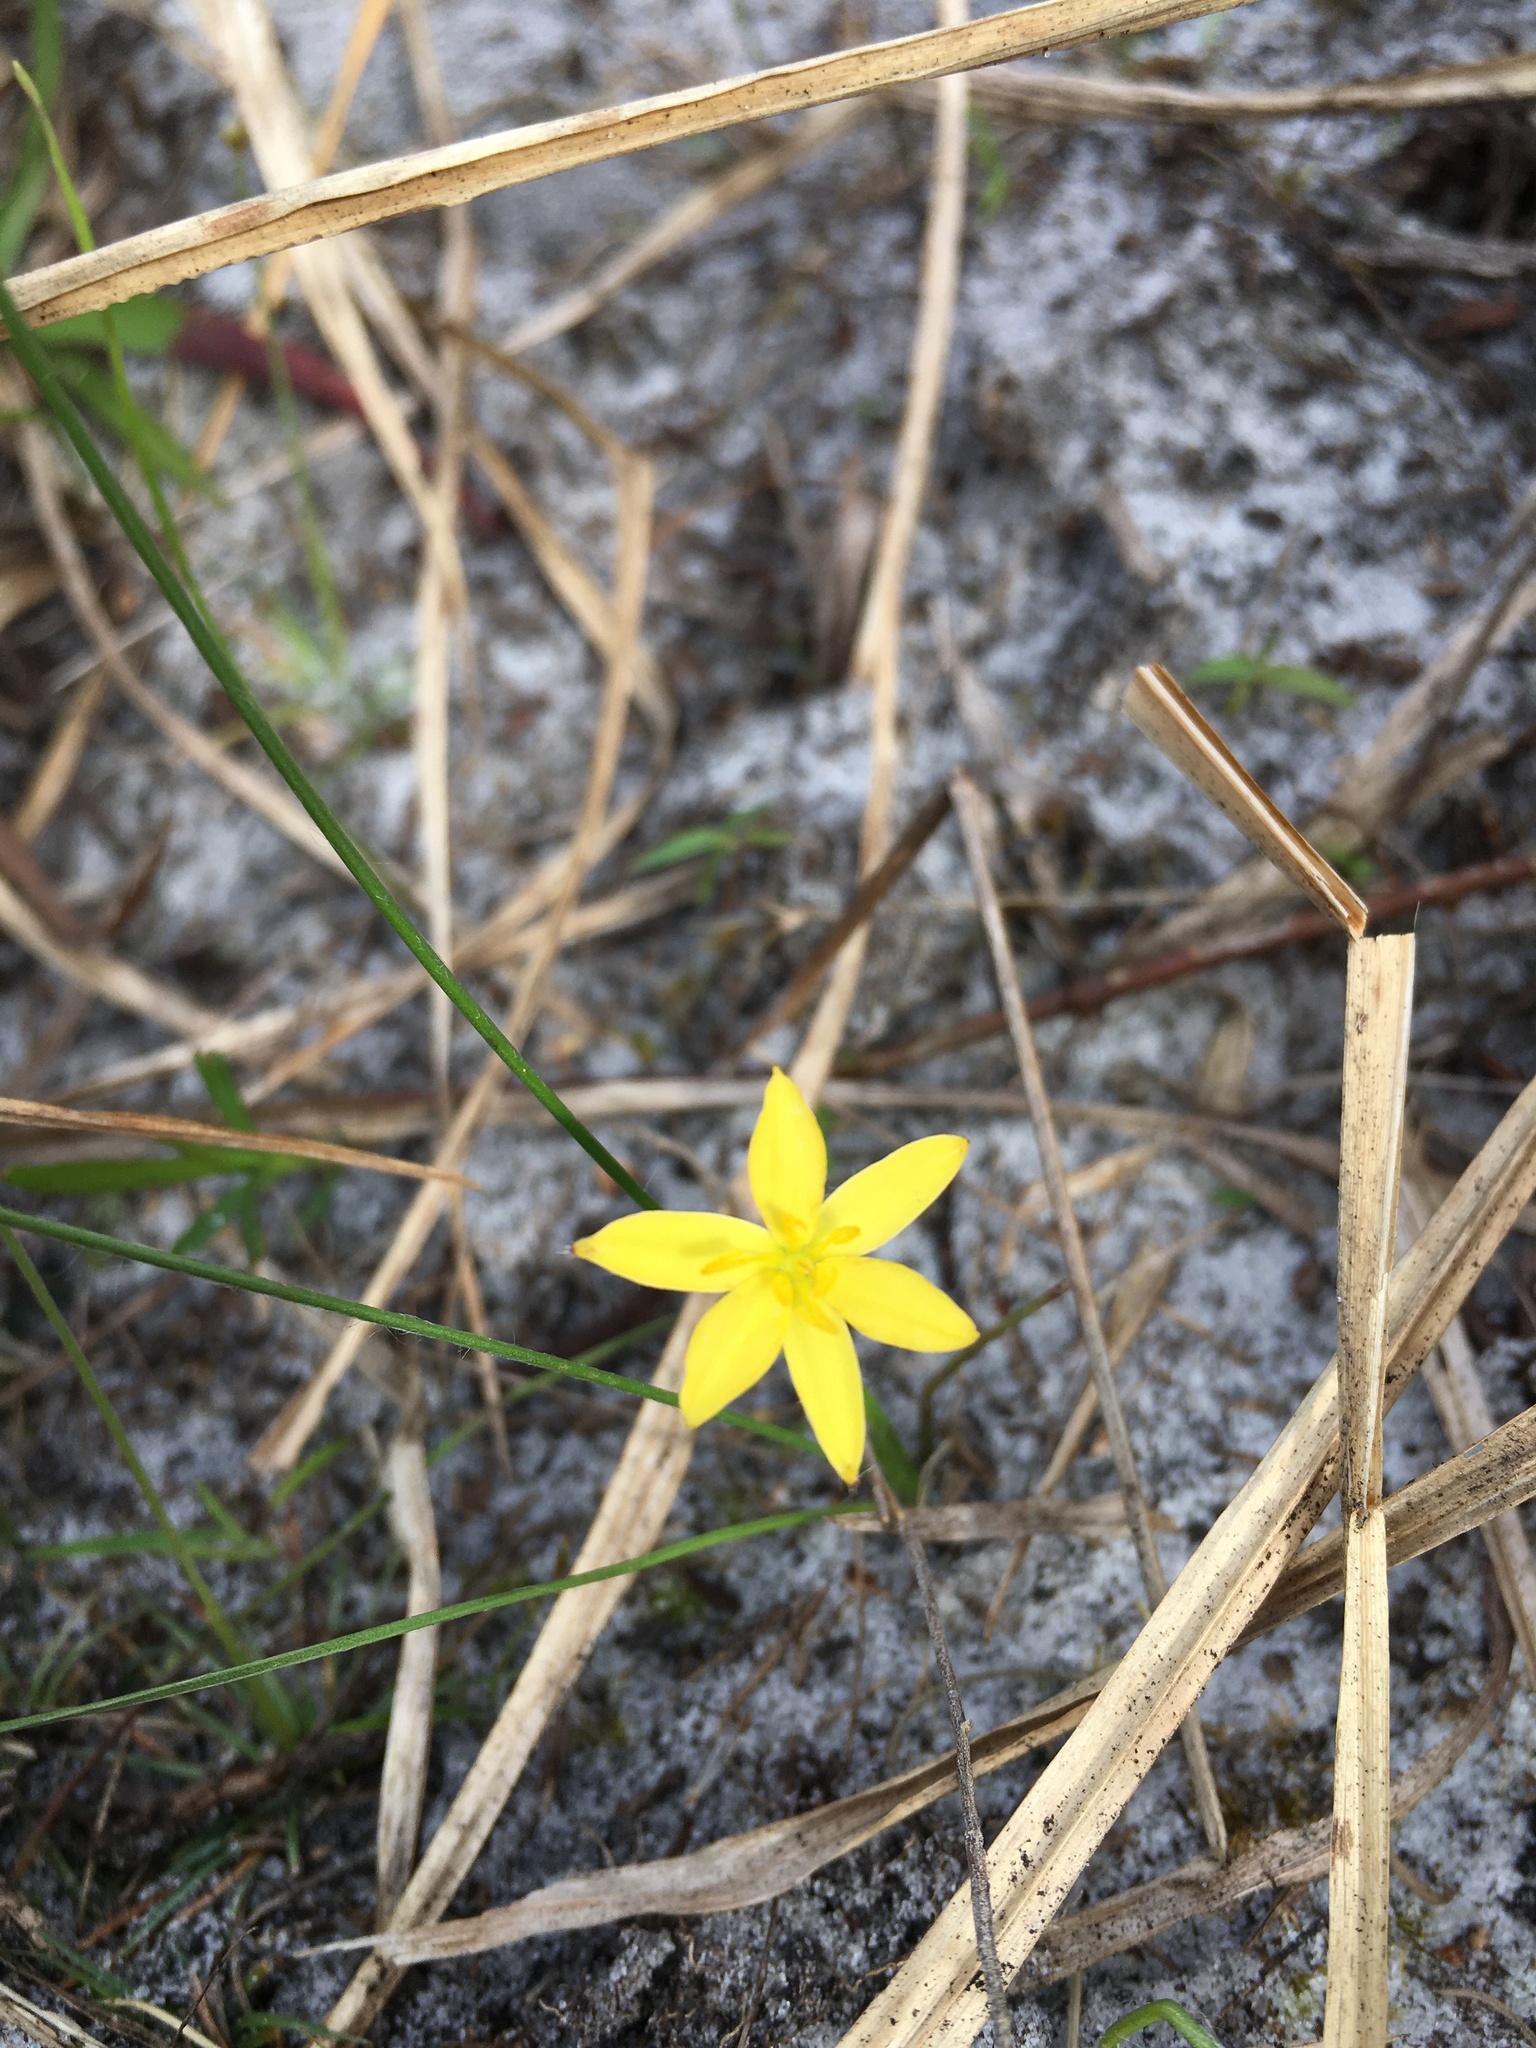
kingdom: Plantae
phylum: Tracheophyta
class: Liliopsida
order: Asparagales
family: Hypoxidaceae
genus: Hypoxis
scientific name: Hypoxis juncea
